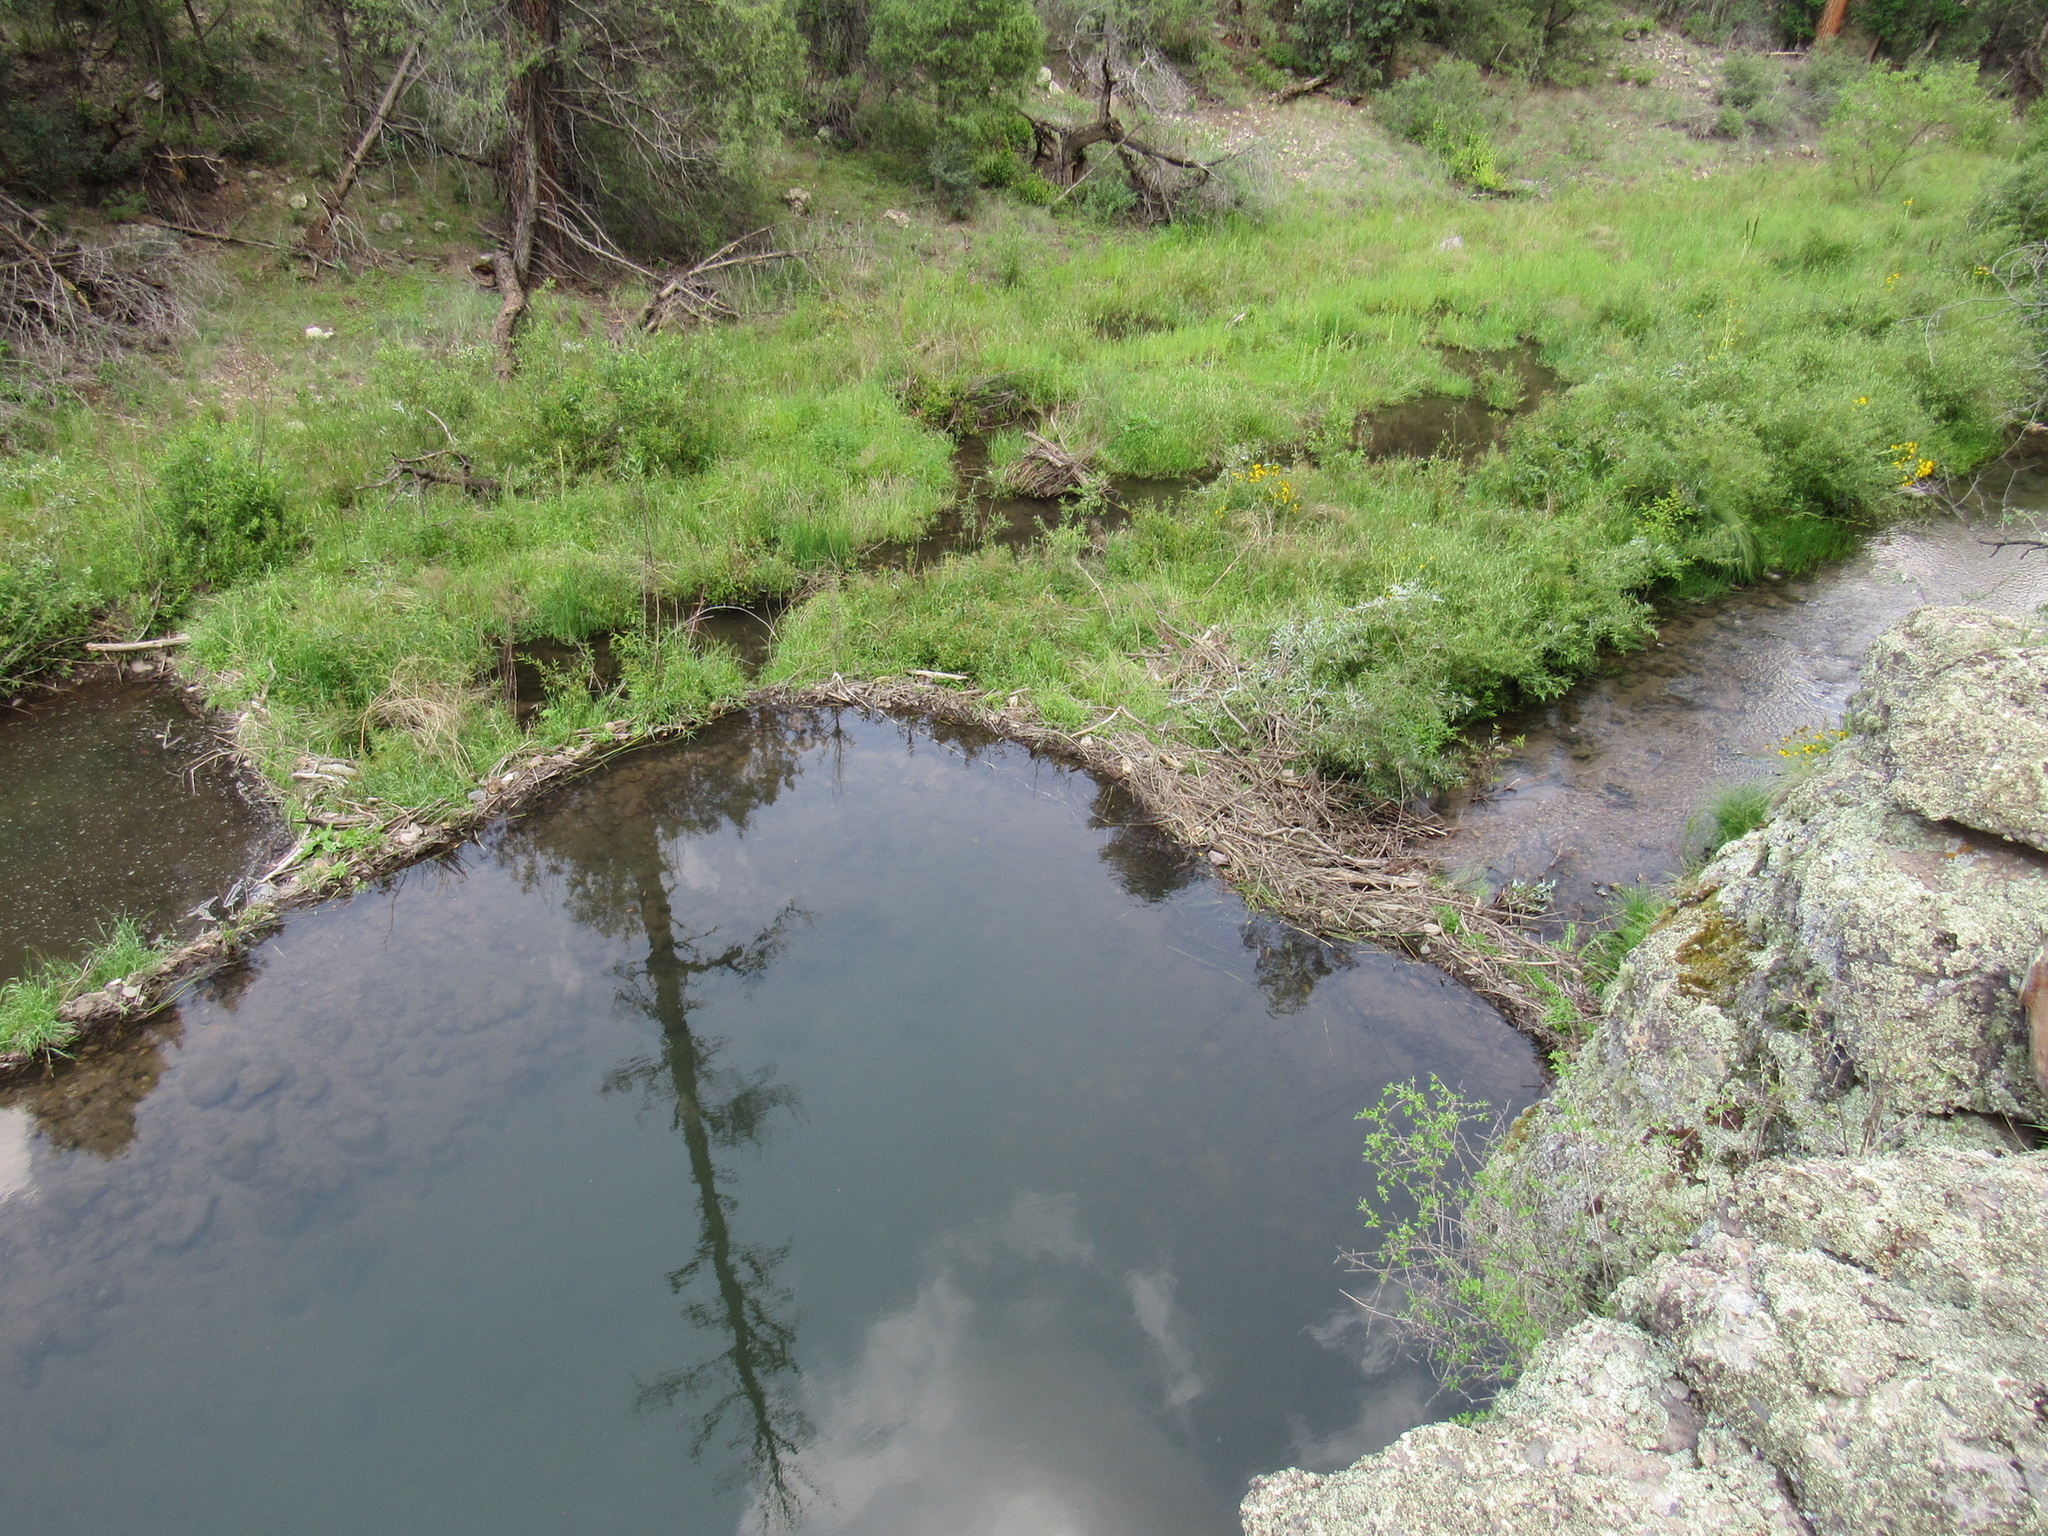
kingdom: Animalia
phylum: Chordata
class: Mammalia
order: Rodentia
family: Castoridae
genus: Castor
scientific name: Castor canadensis
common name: American beaver
